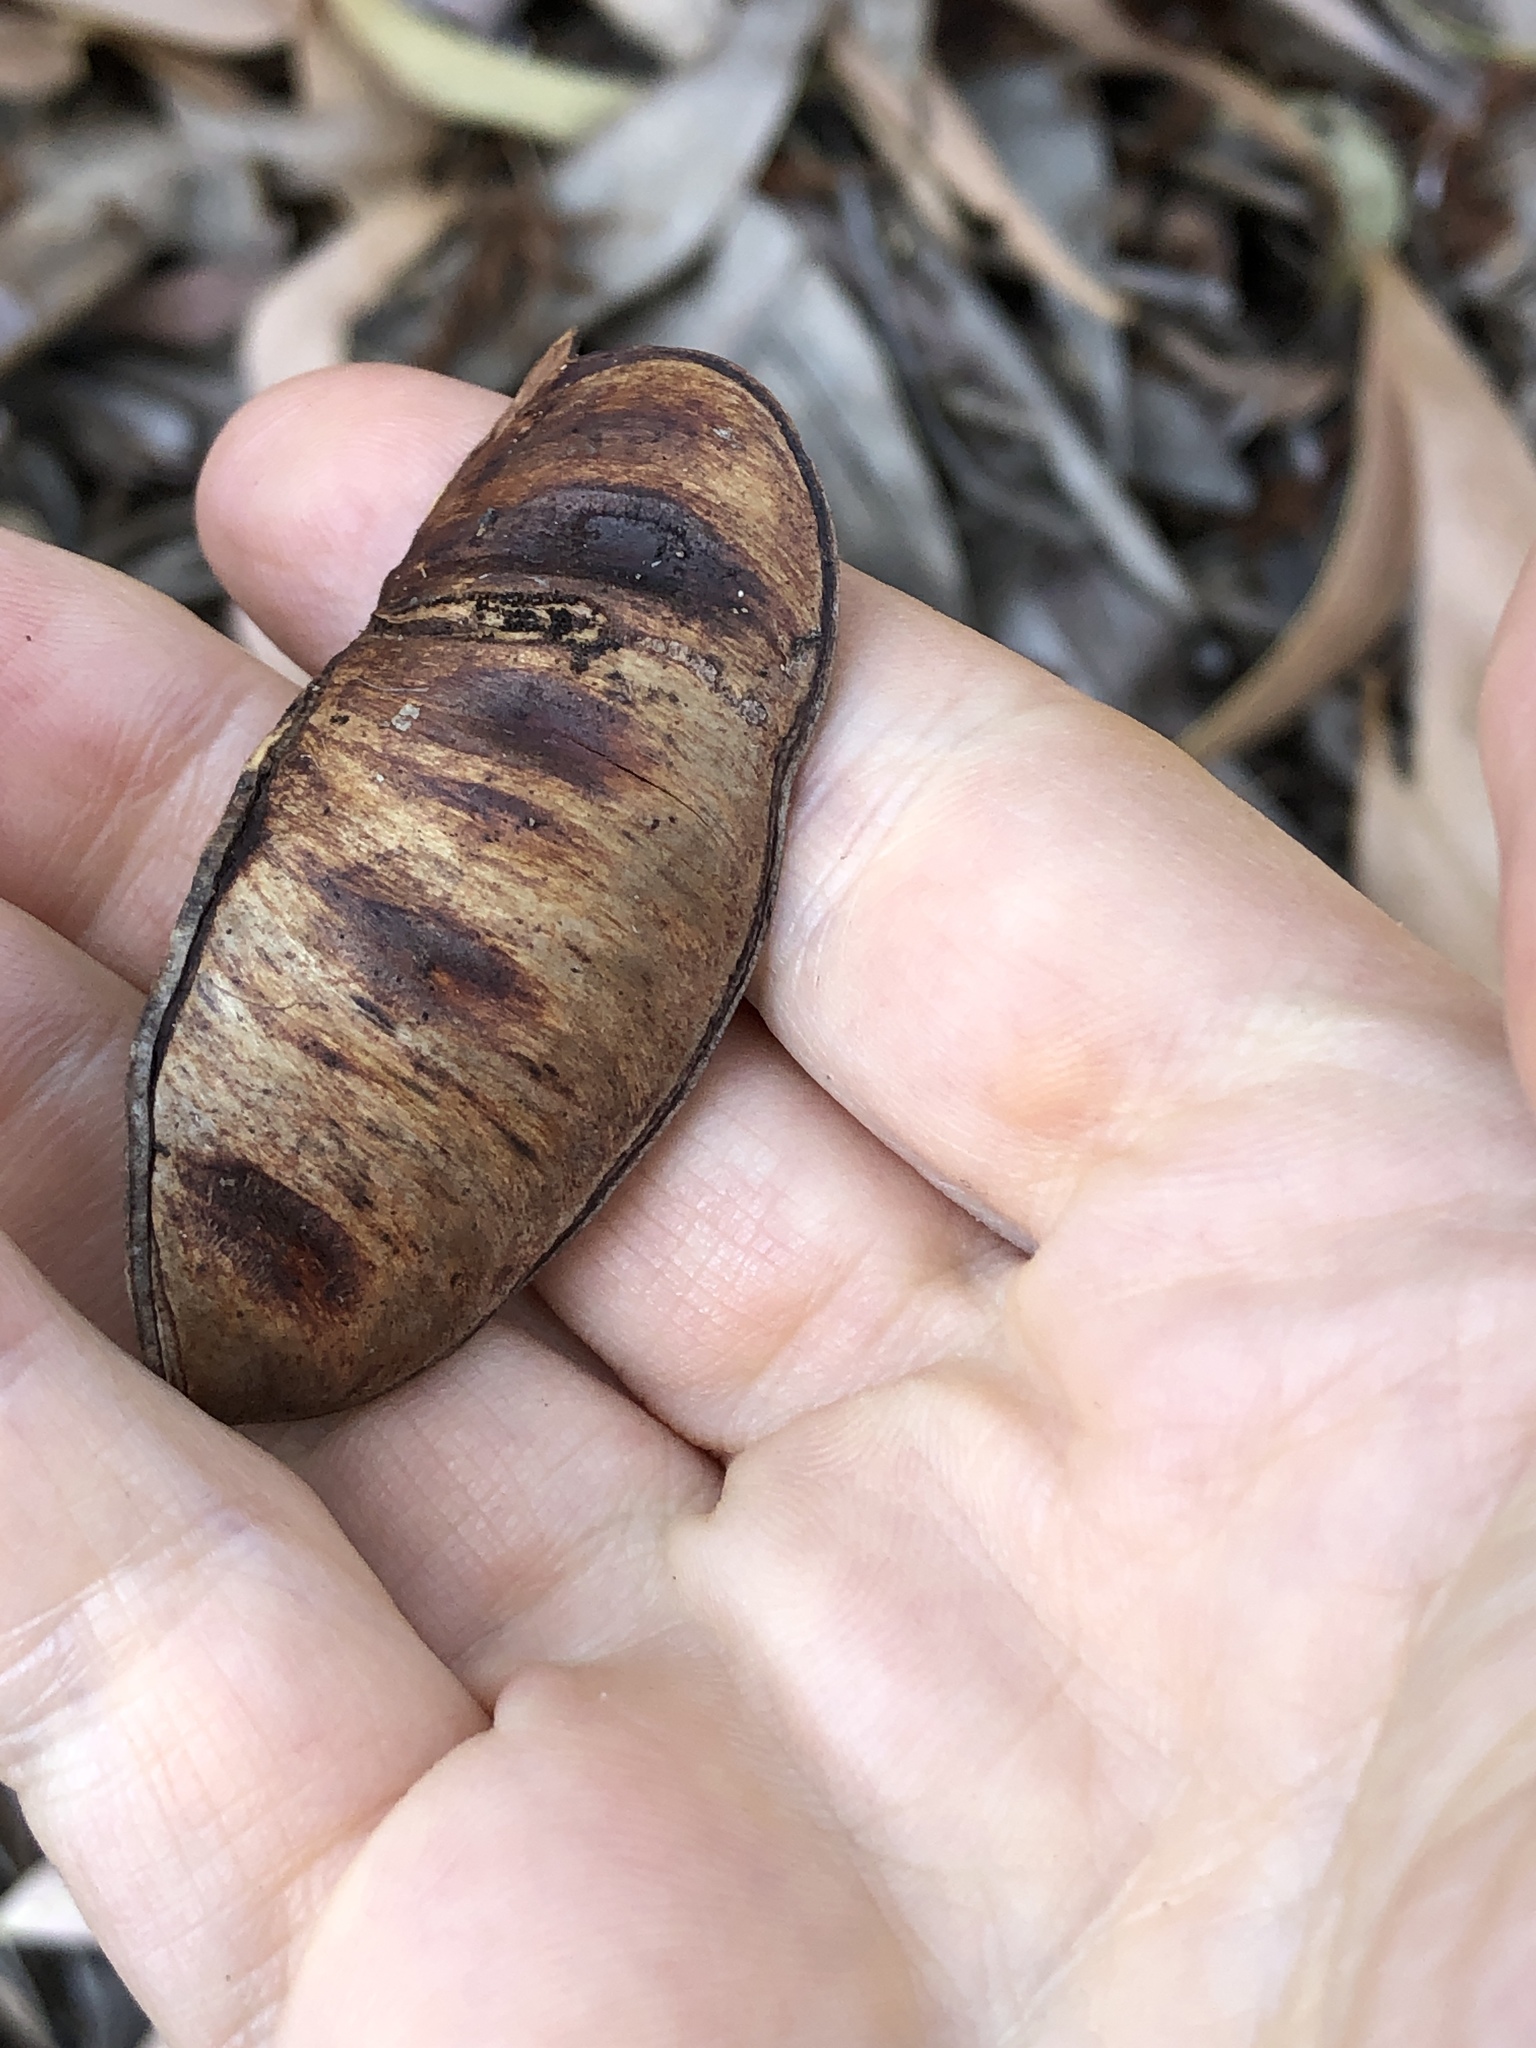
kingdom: Plantae
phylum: Tracheophyta
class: Magnoliopsida
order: Fabales
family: Fabaceae
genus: Acacia
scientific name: Acacia crassicarpa
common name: Northern wattle
